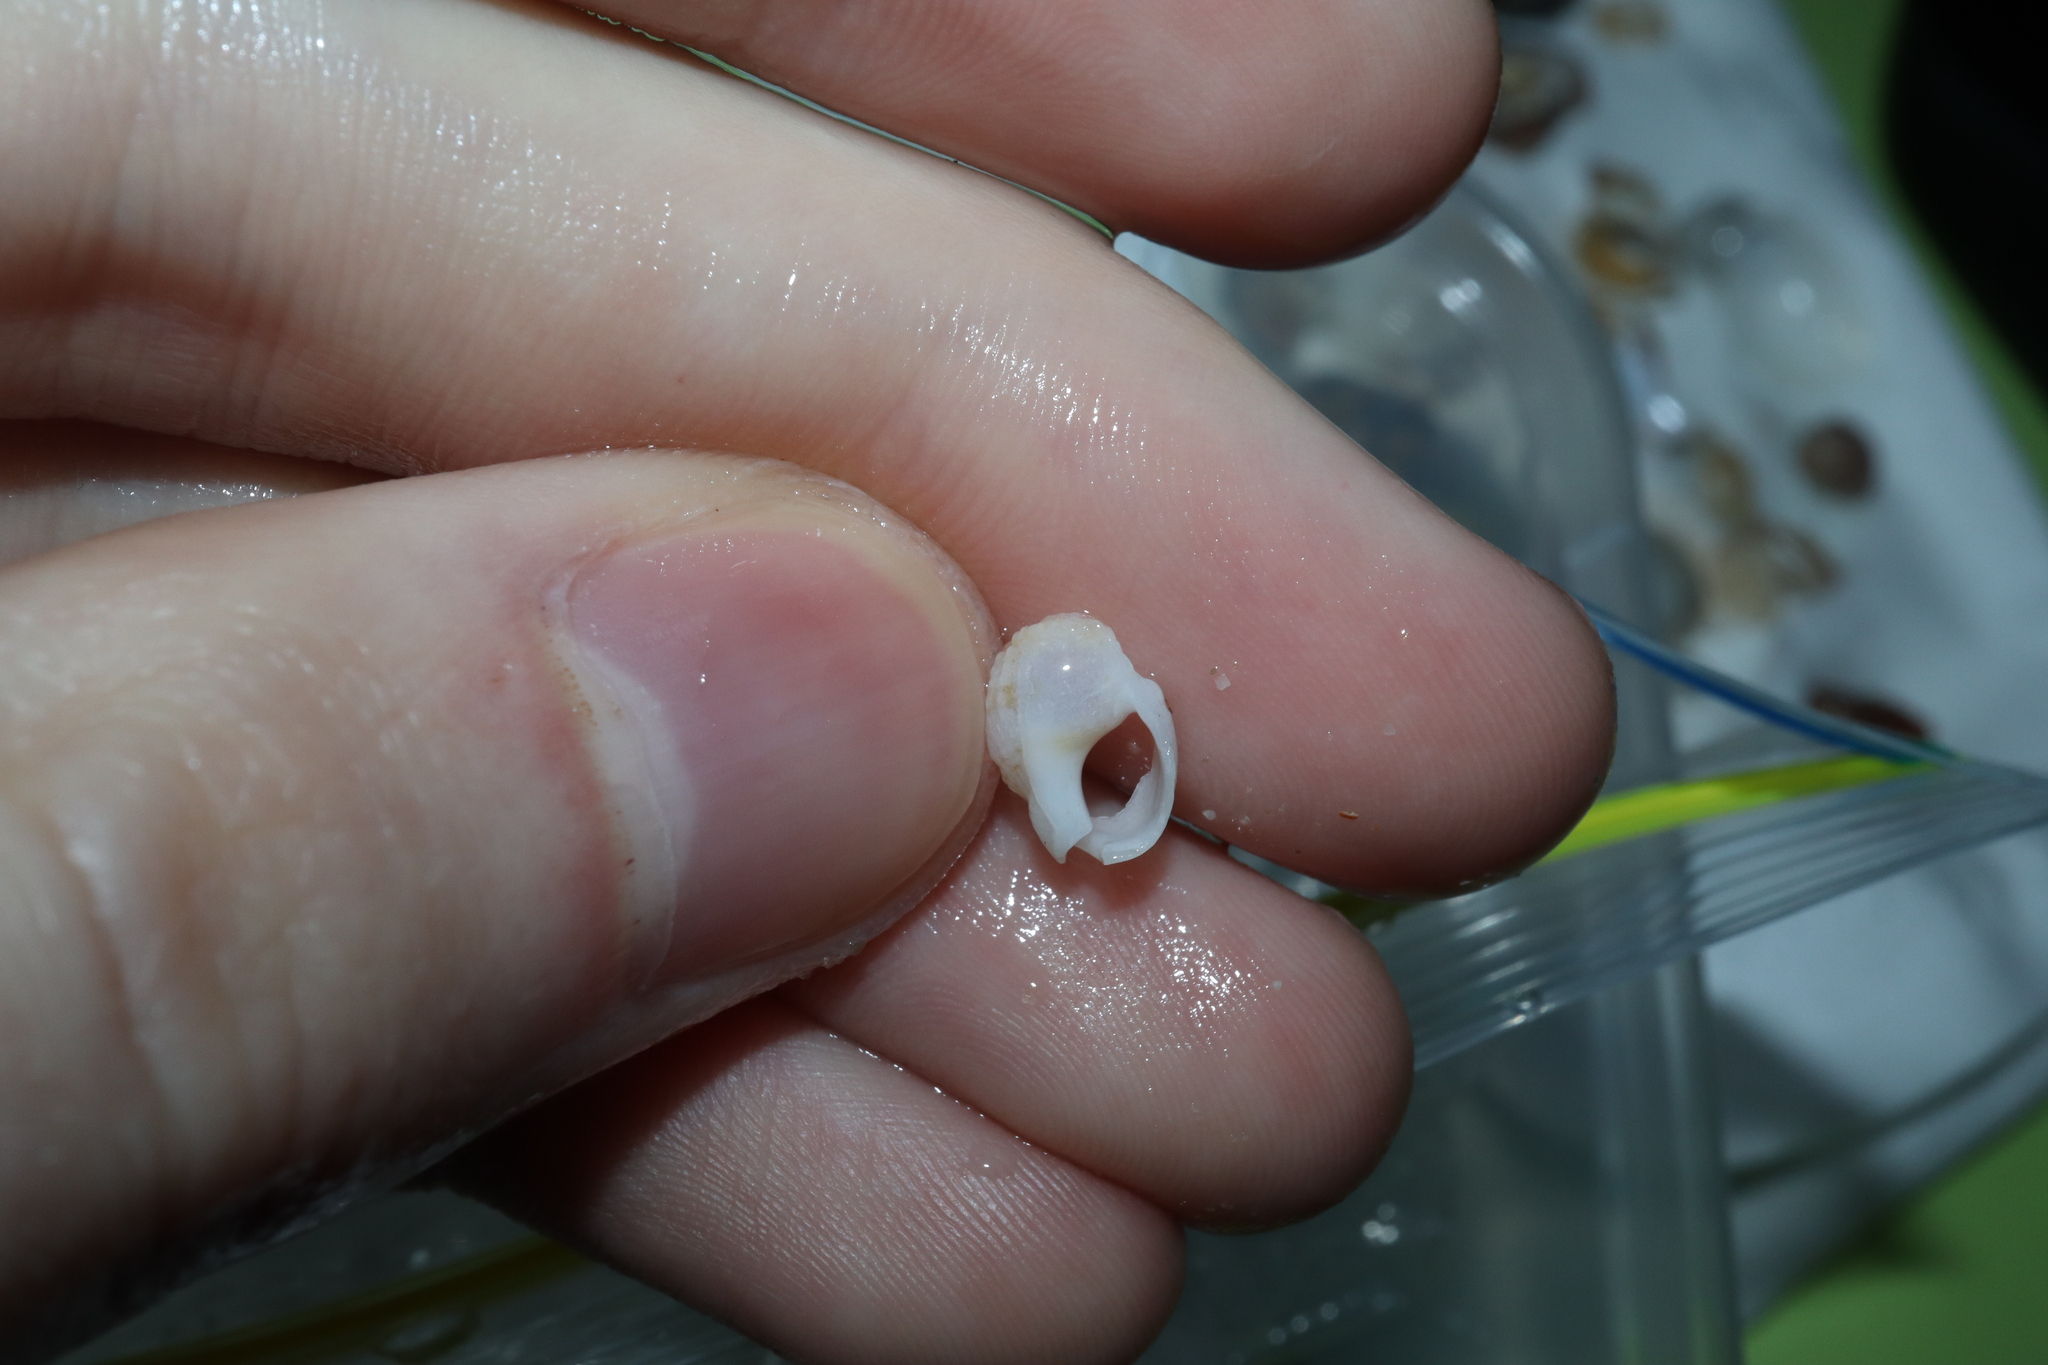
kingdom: Animalia
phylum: Mollusca
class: Gastropoda
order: Neogastropoda
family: Nassariidae
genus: Nassarius
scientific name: Nassarius nigellus
